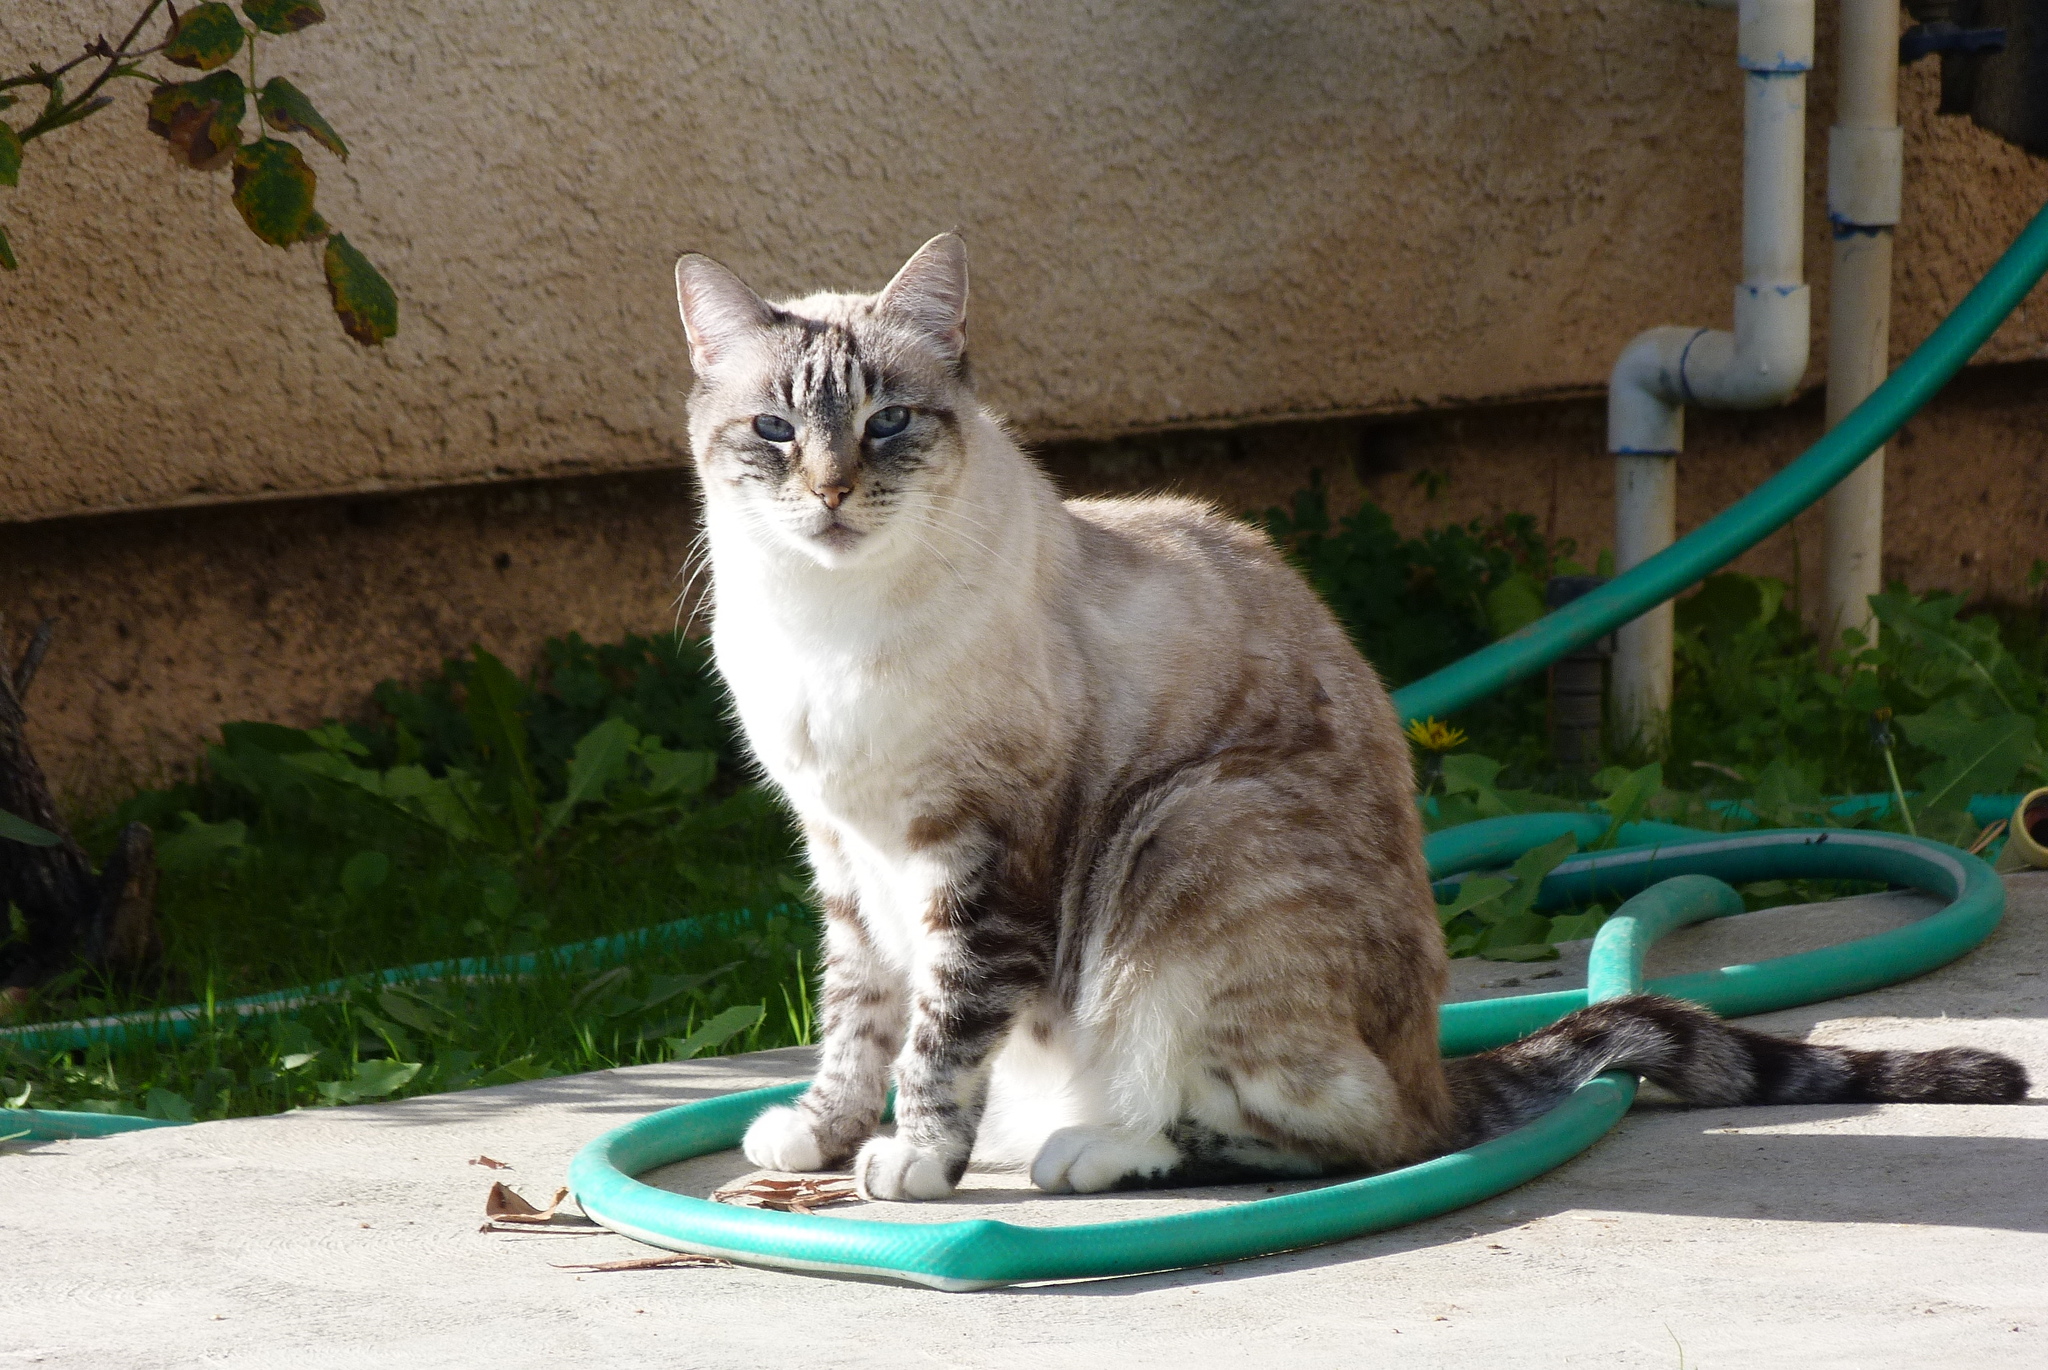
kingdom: Animalia
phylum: Chordata
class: Mammalia
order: Carnivora
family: Felidae
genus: Felis
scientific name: Felis catus
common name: Domestic cat
